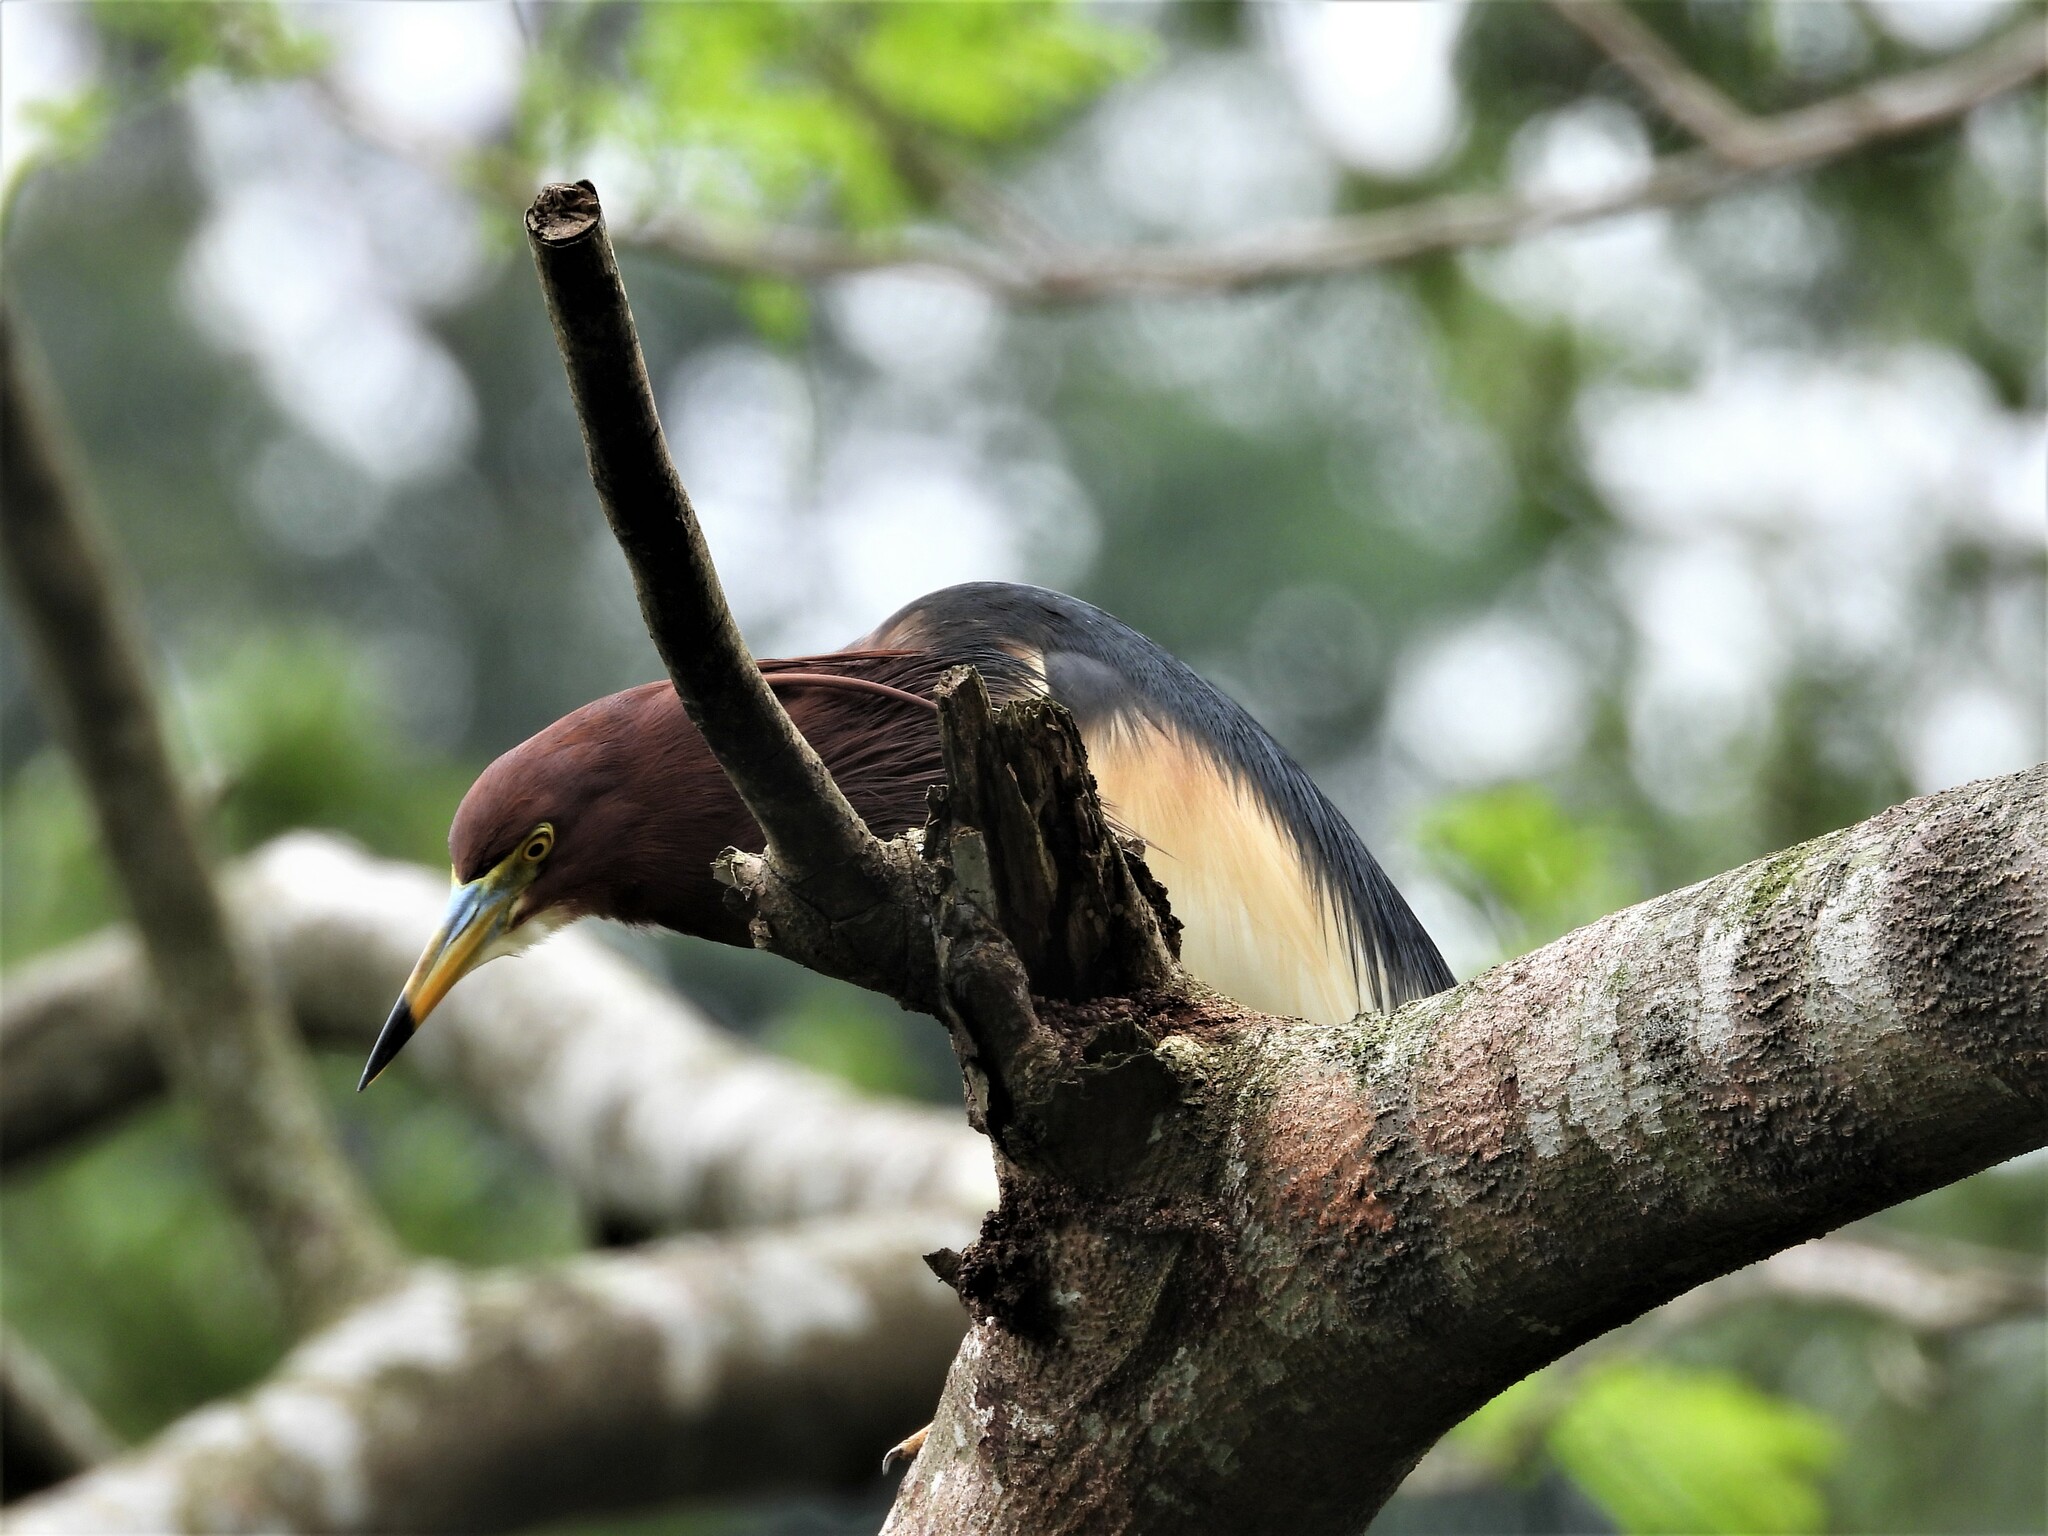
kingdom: Animalia
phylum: Chordata
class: Aves
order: Pelecaniformes
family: Ardeidae
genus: Ardeola
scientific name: Ardeola bacchus
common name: Chinese pond heron
